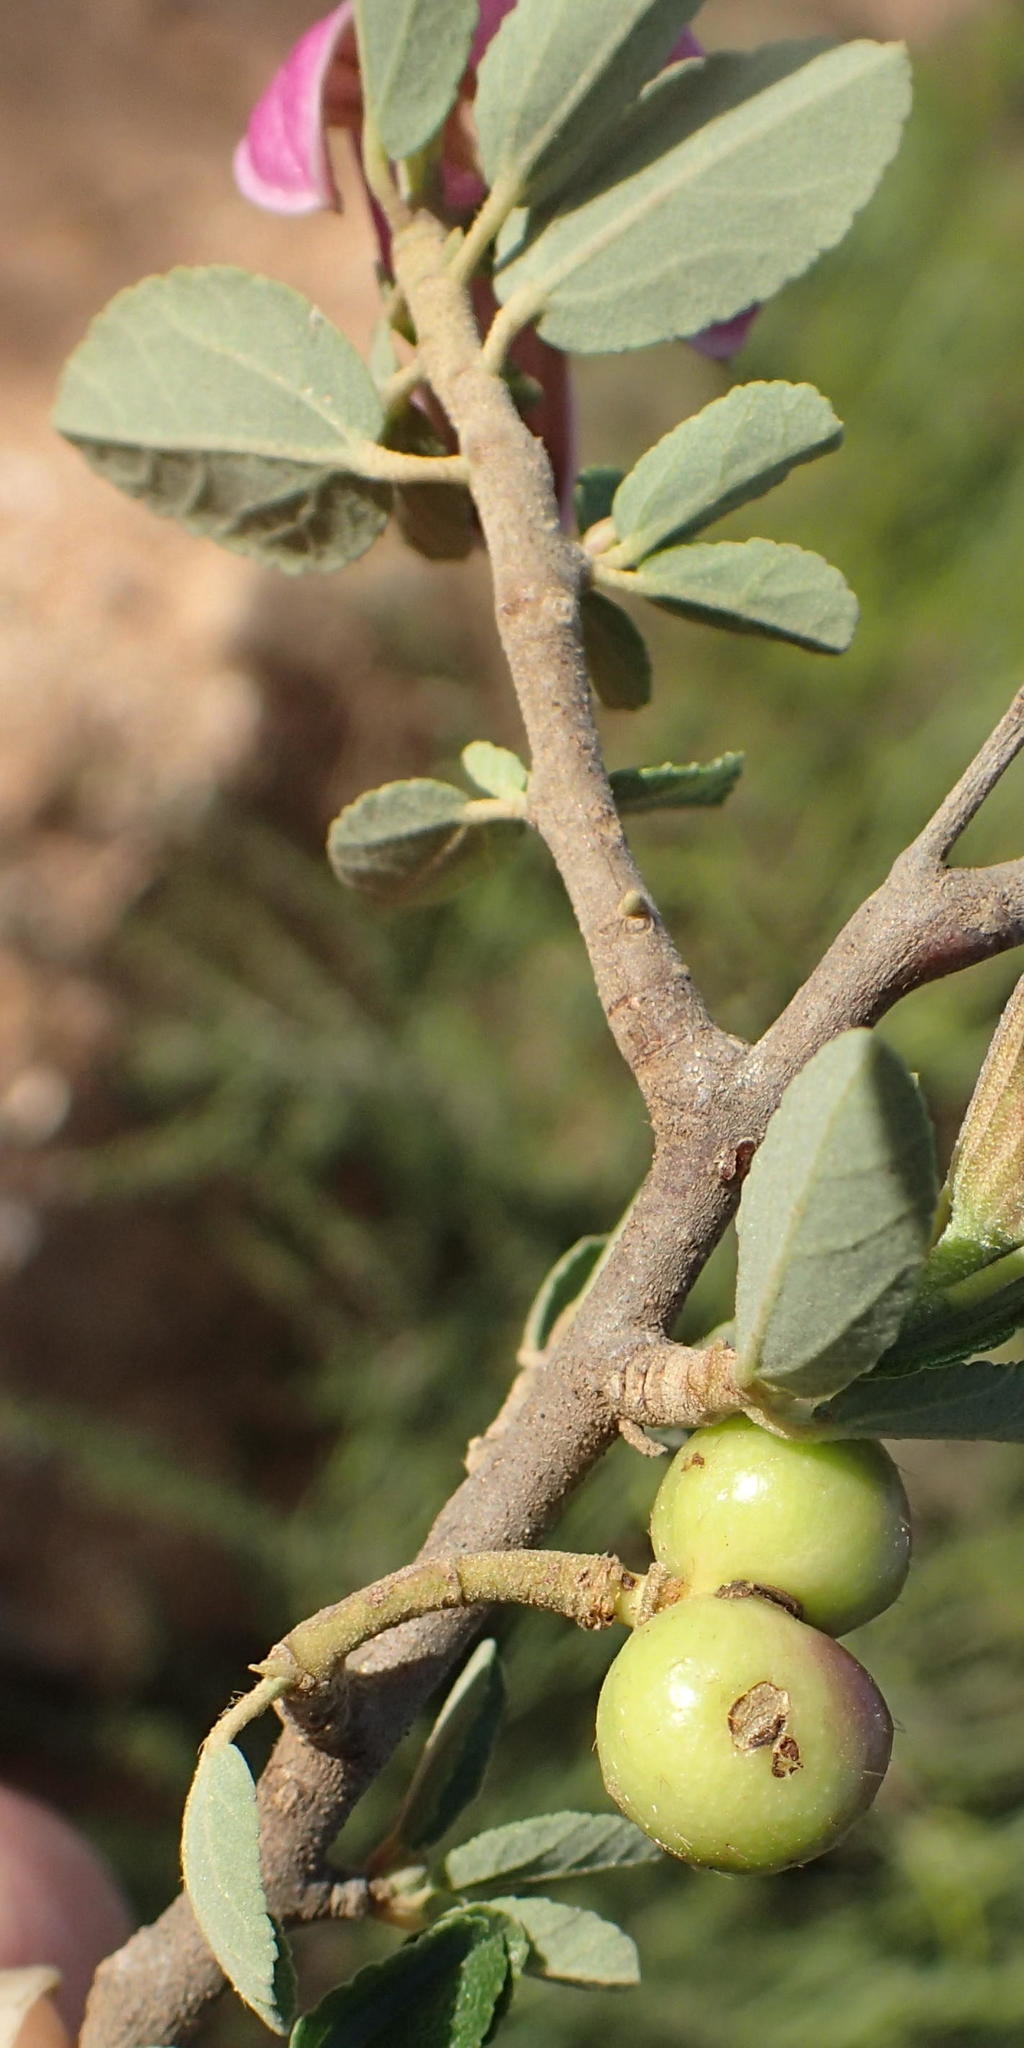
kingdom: Plantae
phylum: Tracheophyta
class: Magnoliopsida
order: Malvales
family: Malvaceae
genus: Grewia
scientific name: Grewia robusta
